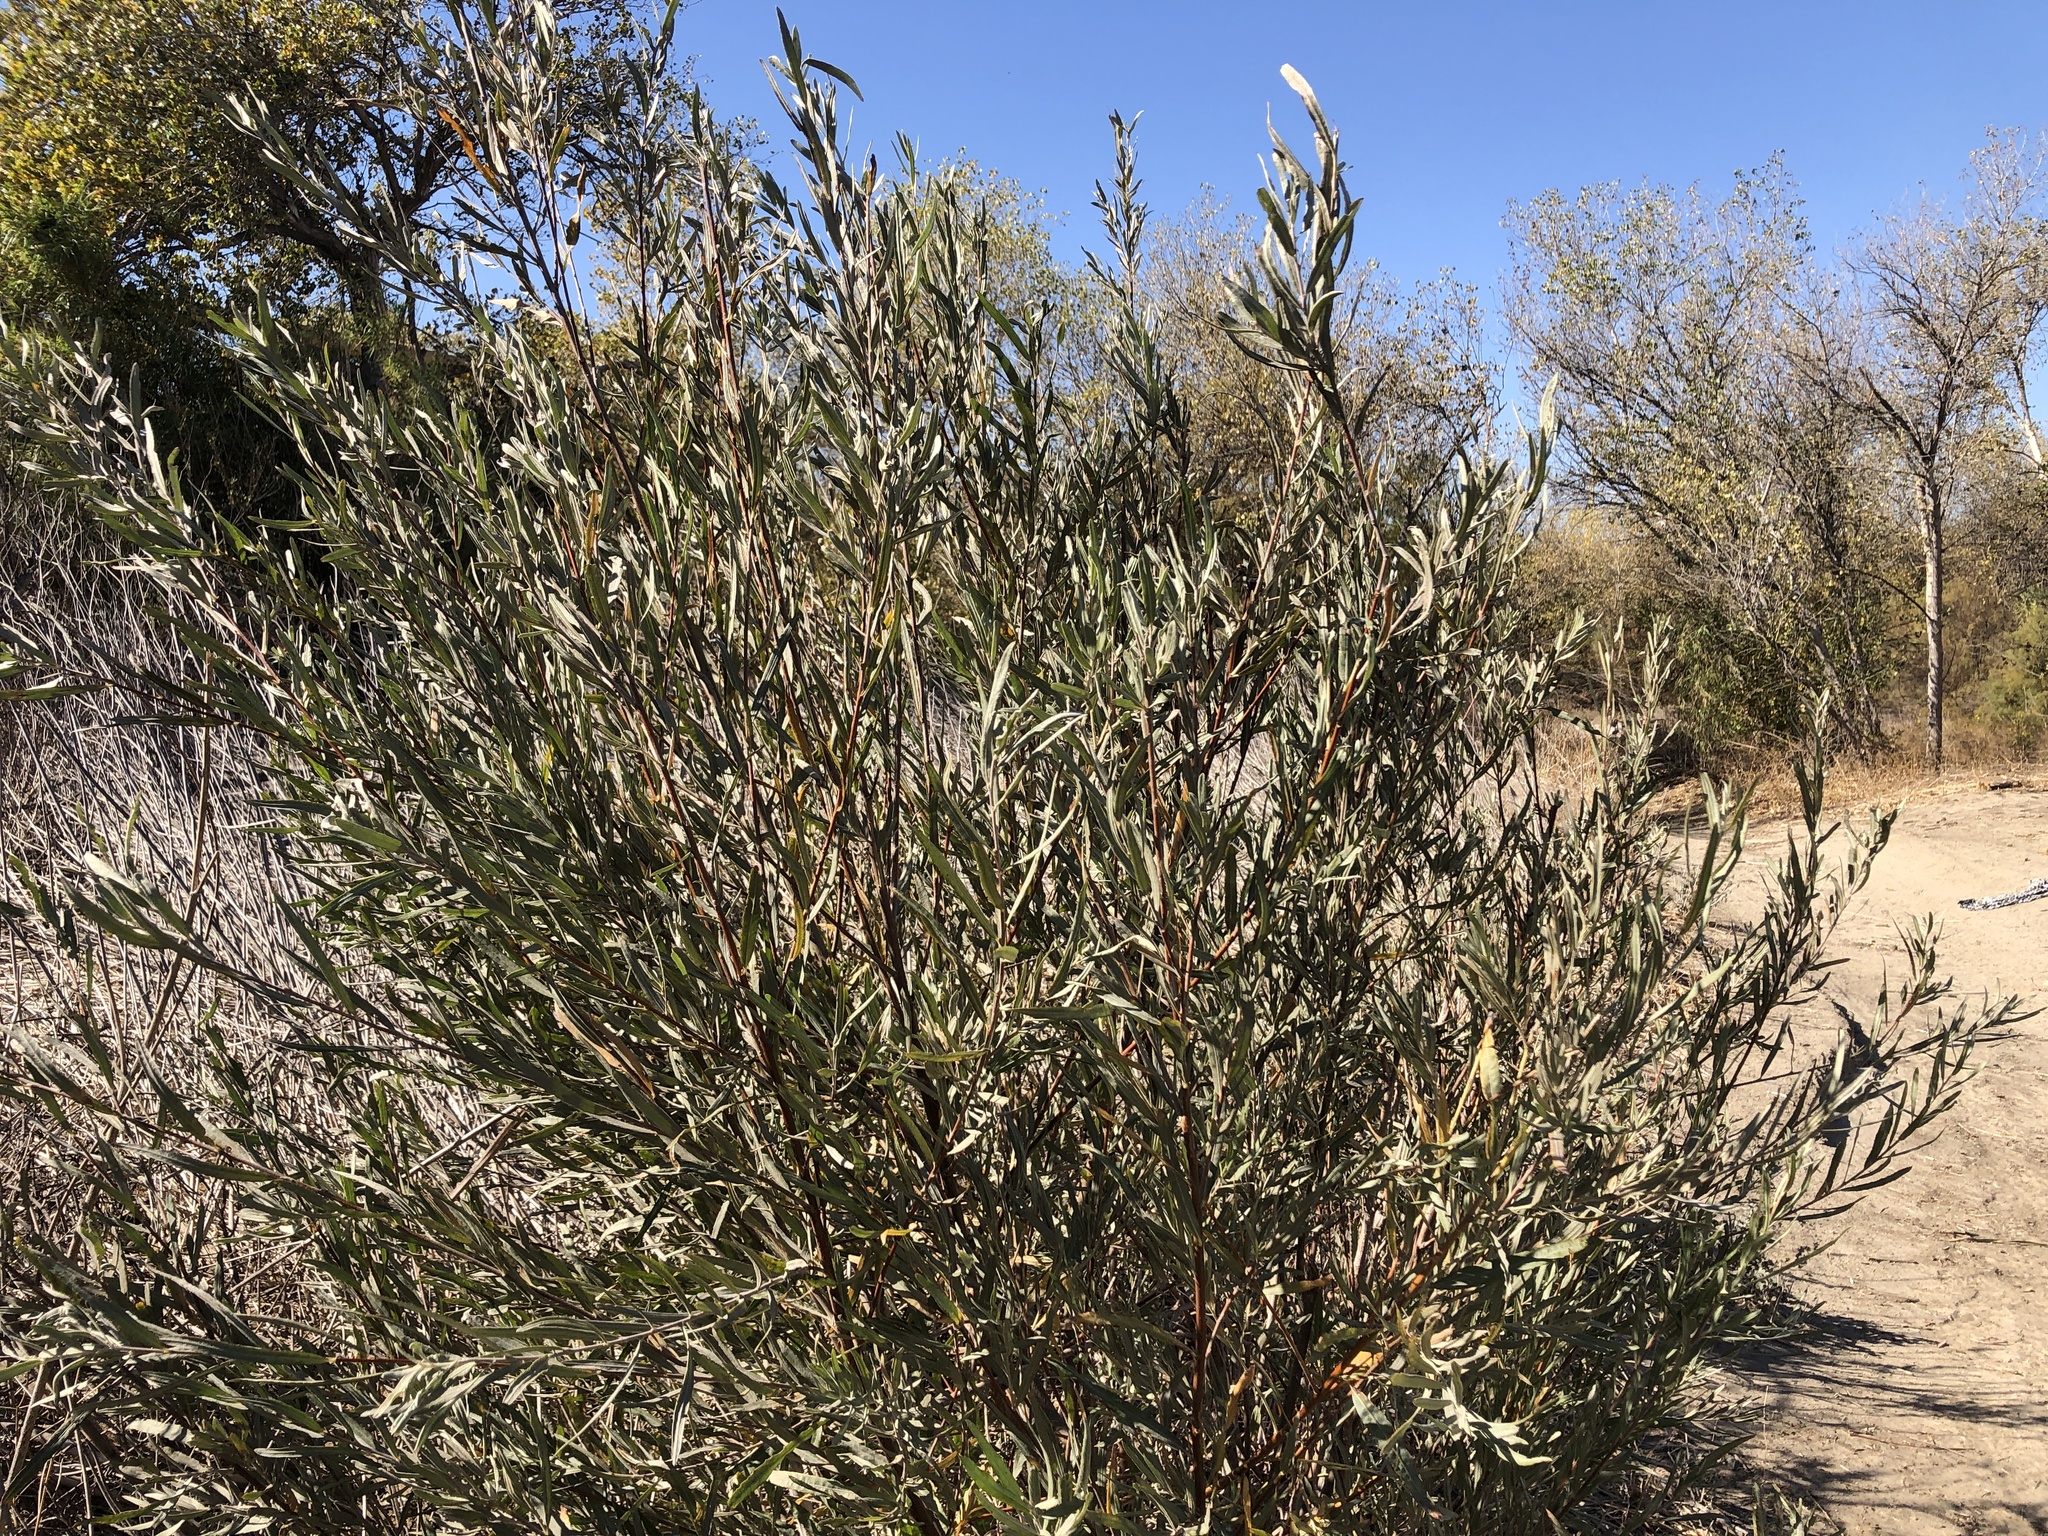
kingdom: Plantae
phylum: Tracheophyta
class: Magnoliopsida
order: Malpighiales
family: Salicaceae
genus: Salix
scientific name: Salix exigua
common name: Coyote willow
